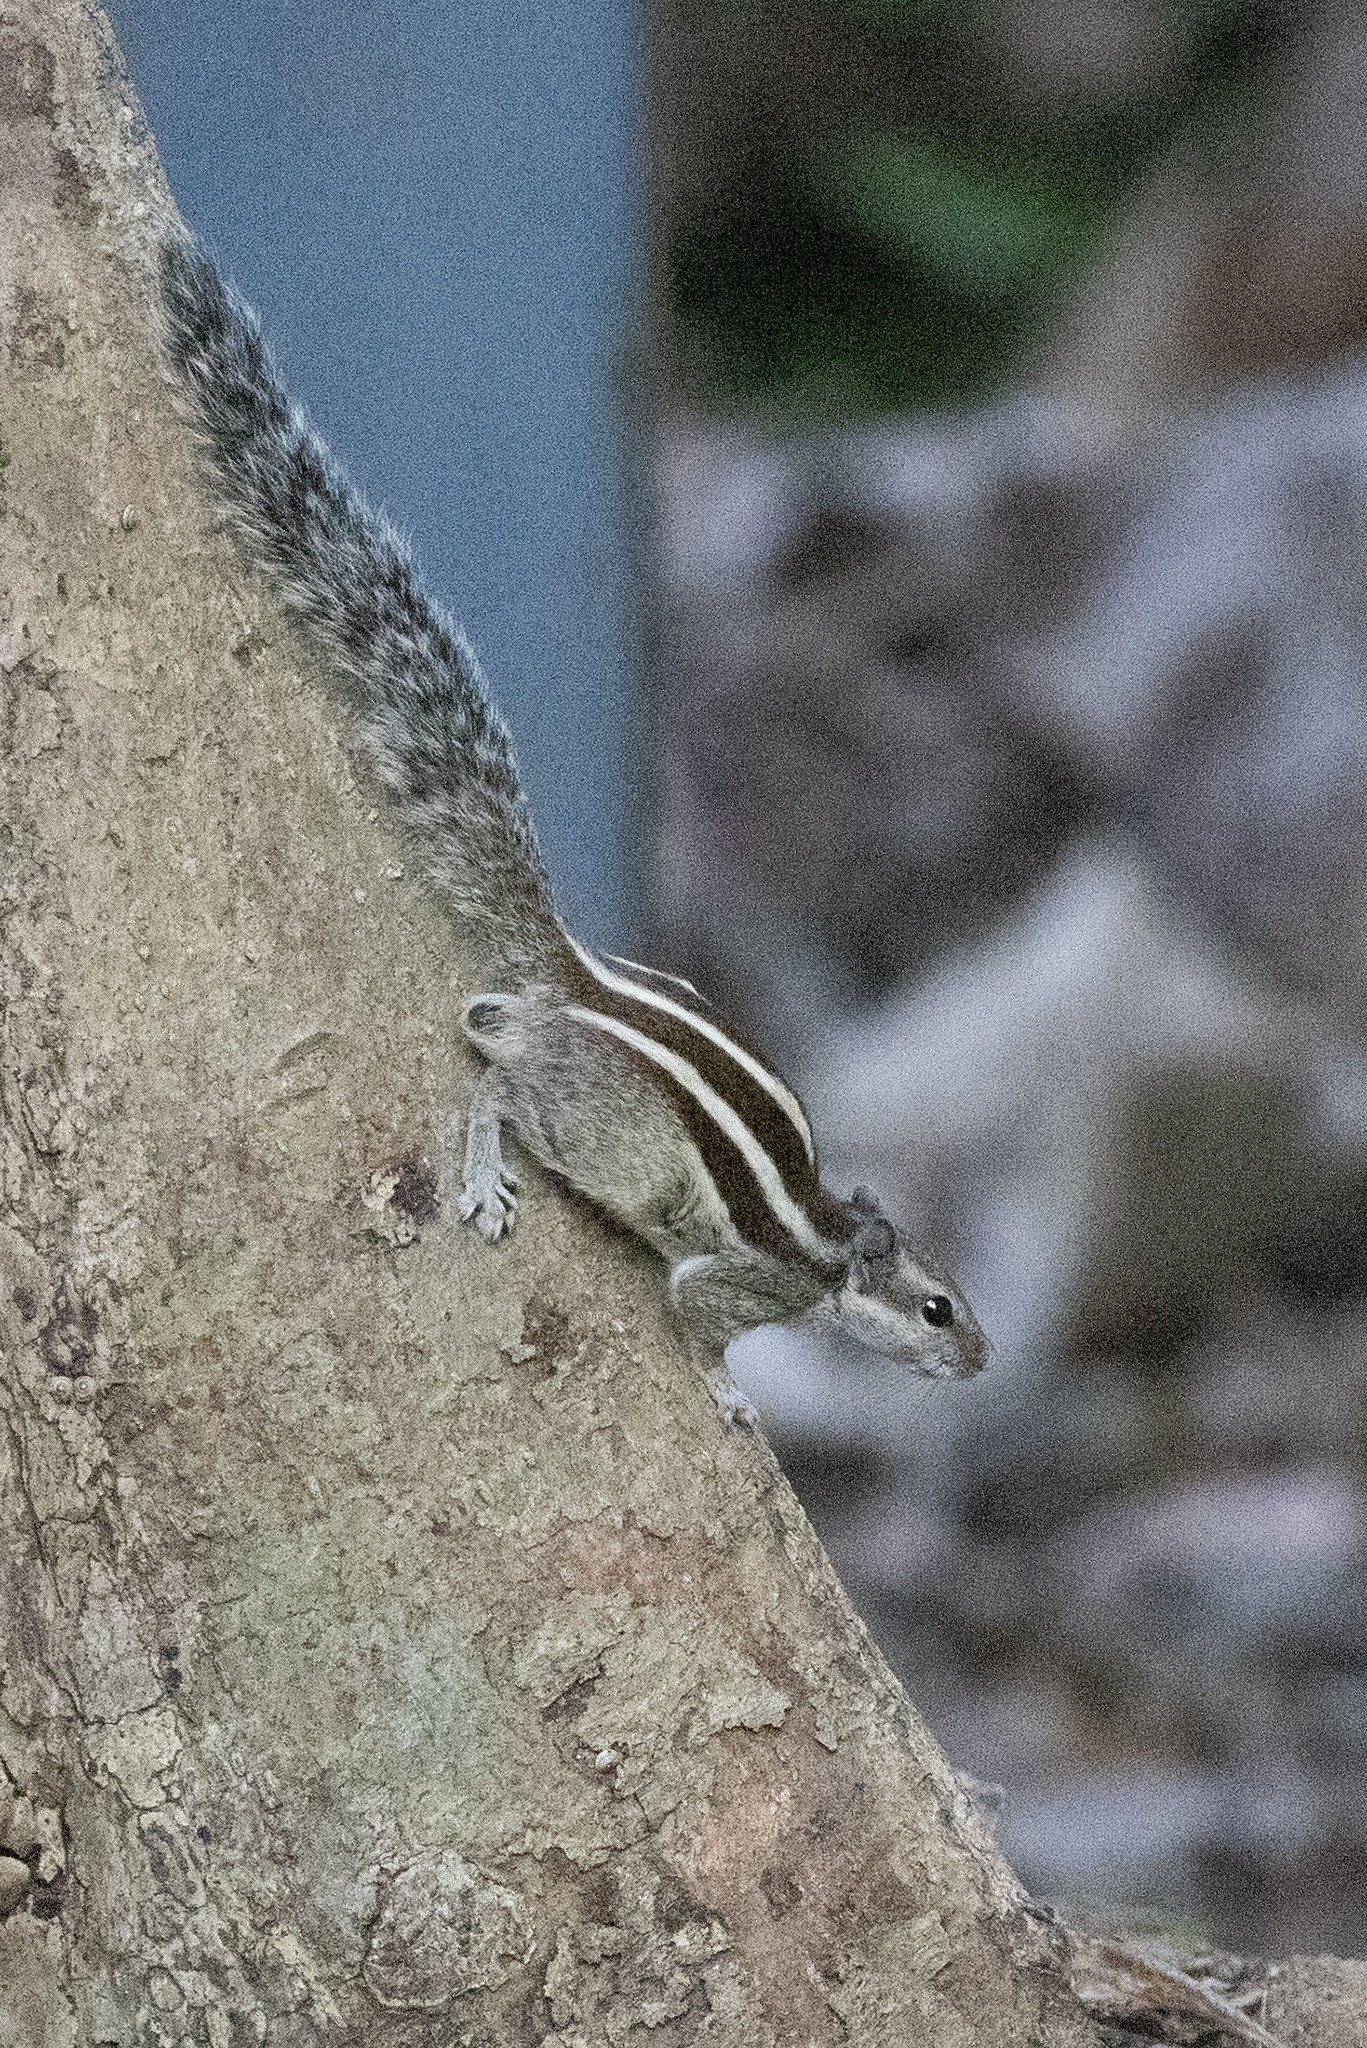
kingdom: Animalia
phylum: Chordata
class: Mammalia
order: Rodentia
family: Sciuridae
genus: Funambulus
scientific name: Funambulus pennantii
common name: Northern palm squirrel
